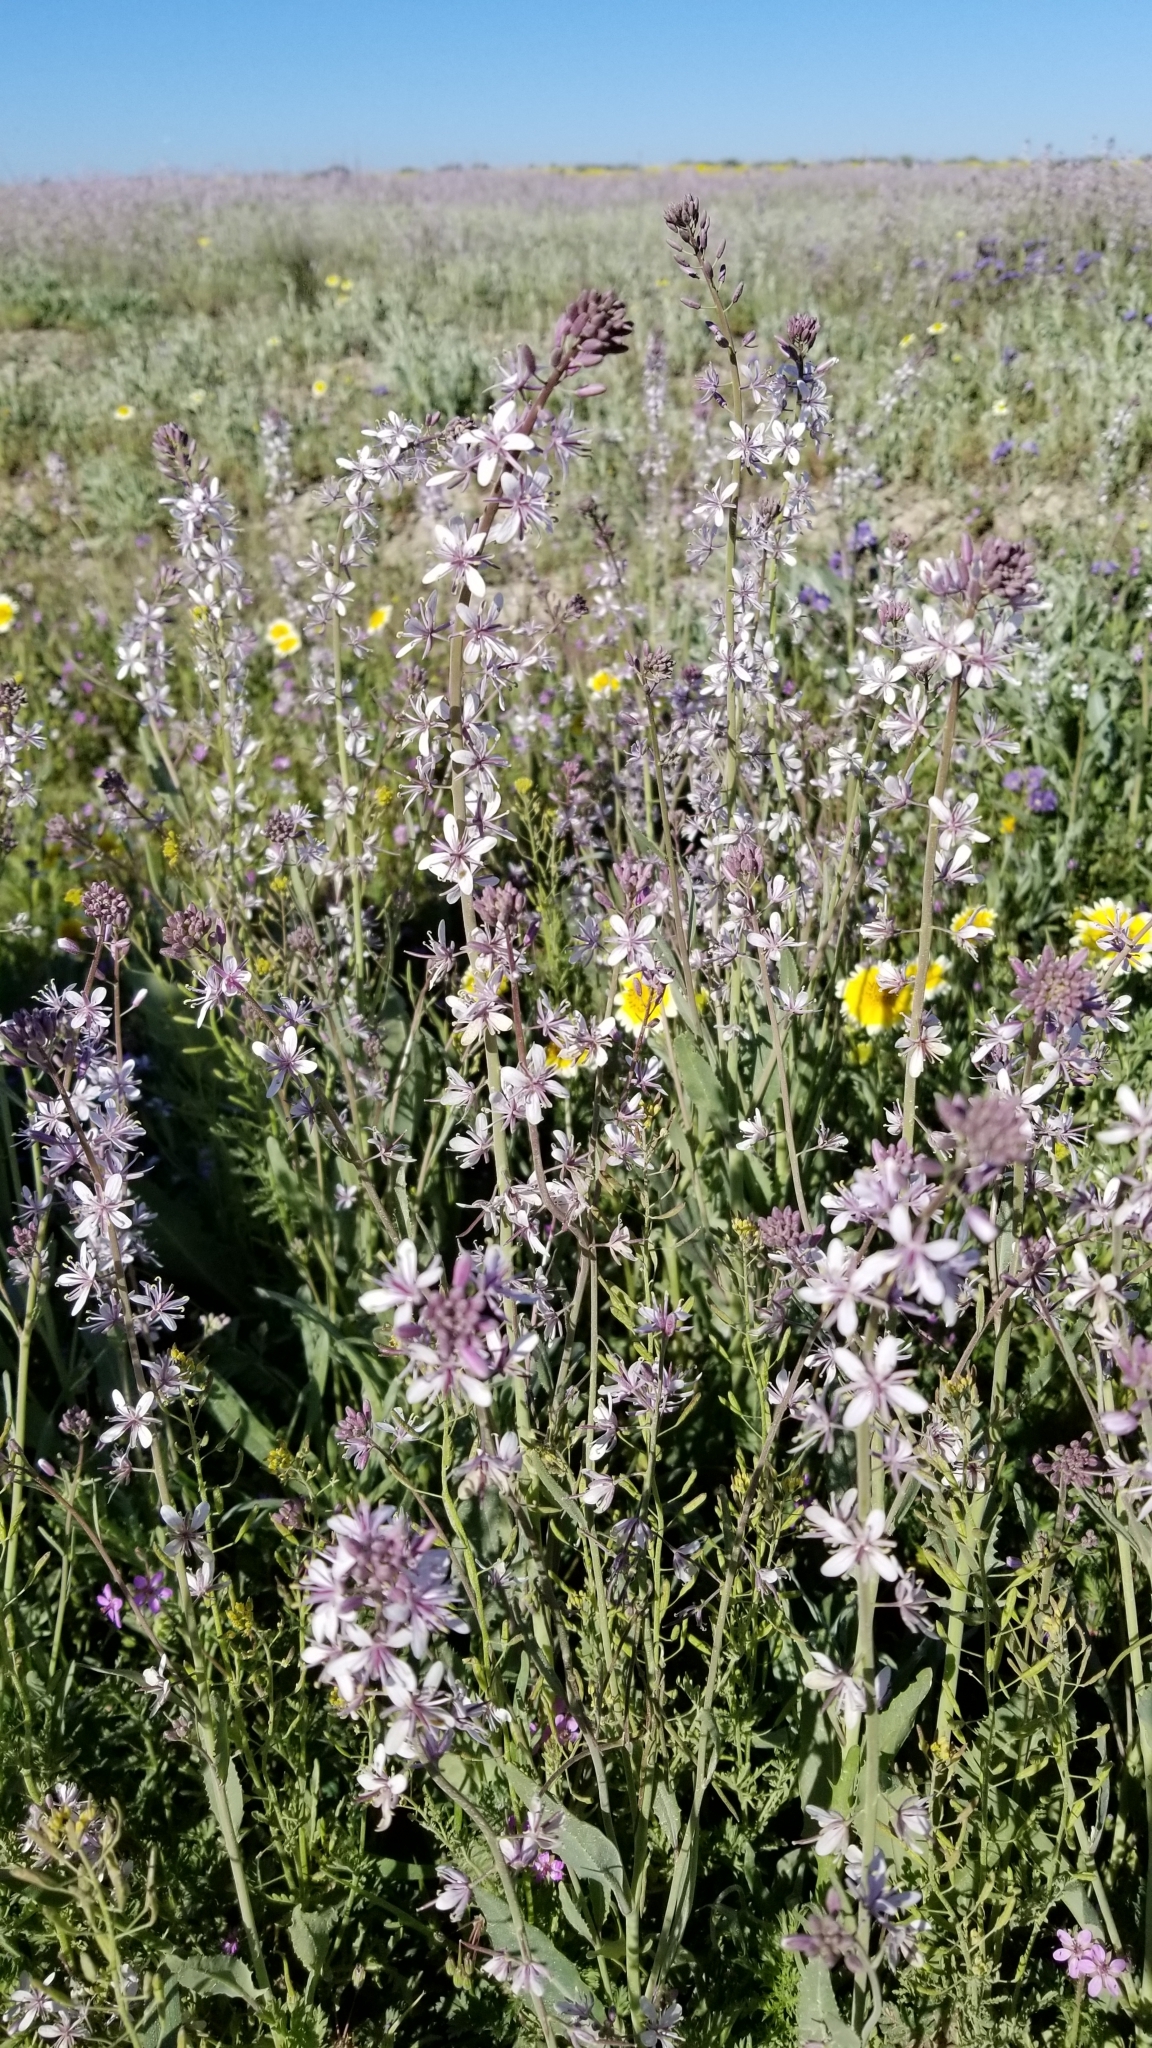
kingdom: Plantae
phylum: Tracheophyta
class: Magnoliopsida
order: Brassicales
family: Brassicaceae
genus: Streptanthus
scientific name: Streptanthus anceps
